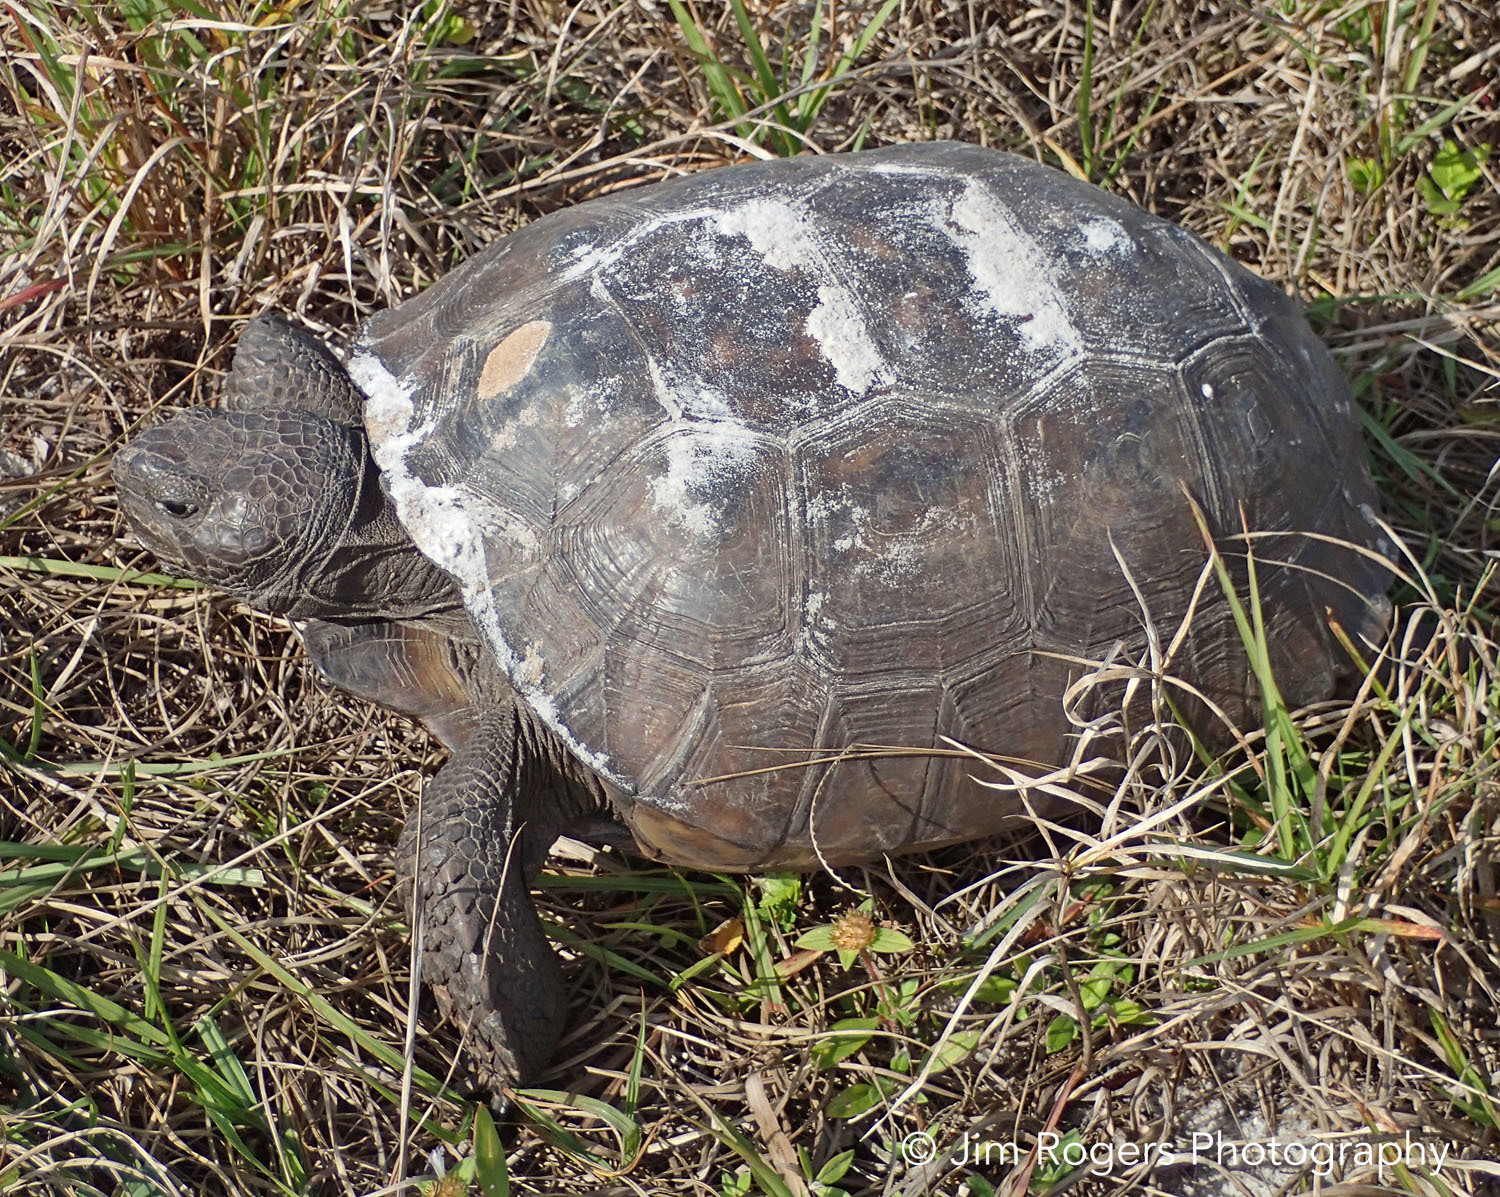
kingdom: Animalia
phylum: Chordata
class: Testudines
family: Testudinidae
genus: Gopherus
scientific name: Gopherus polyphemus
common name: Florida gopher tortoise
